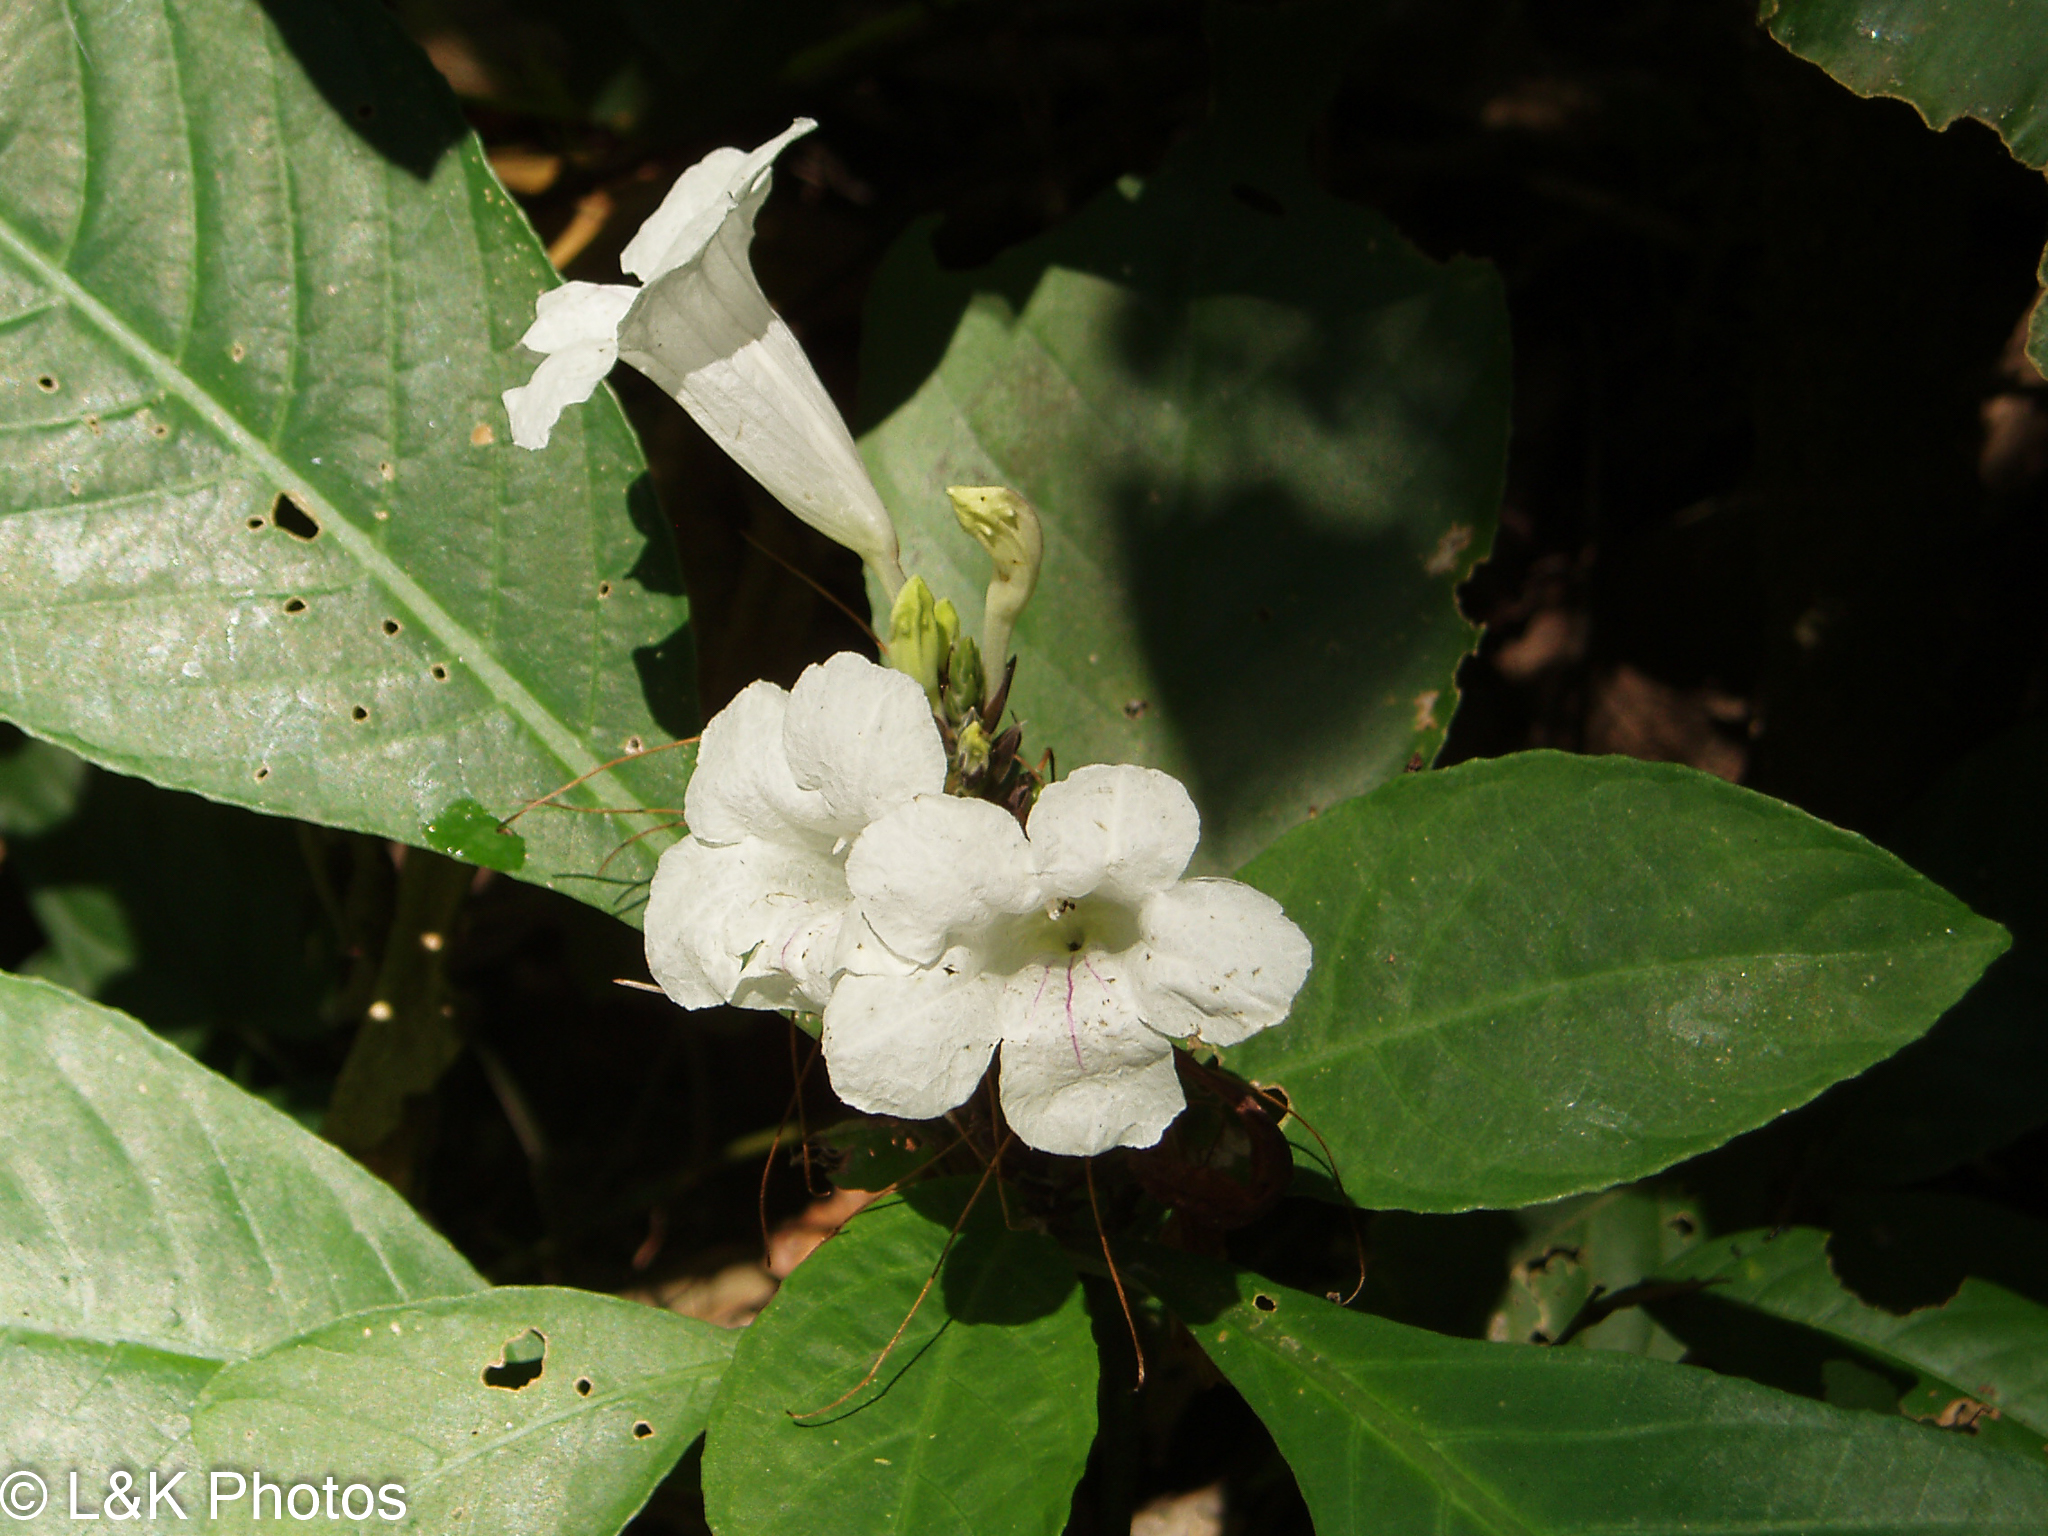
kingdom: Plantae
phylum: Tracheophyta
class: Magnoliopsida
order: Lamiales
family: Acanthaceae
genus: Ruellia
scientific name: Ruellia proxima
